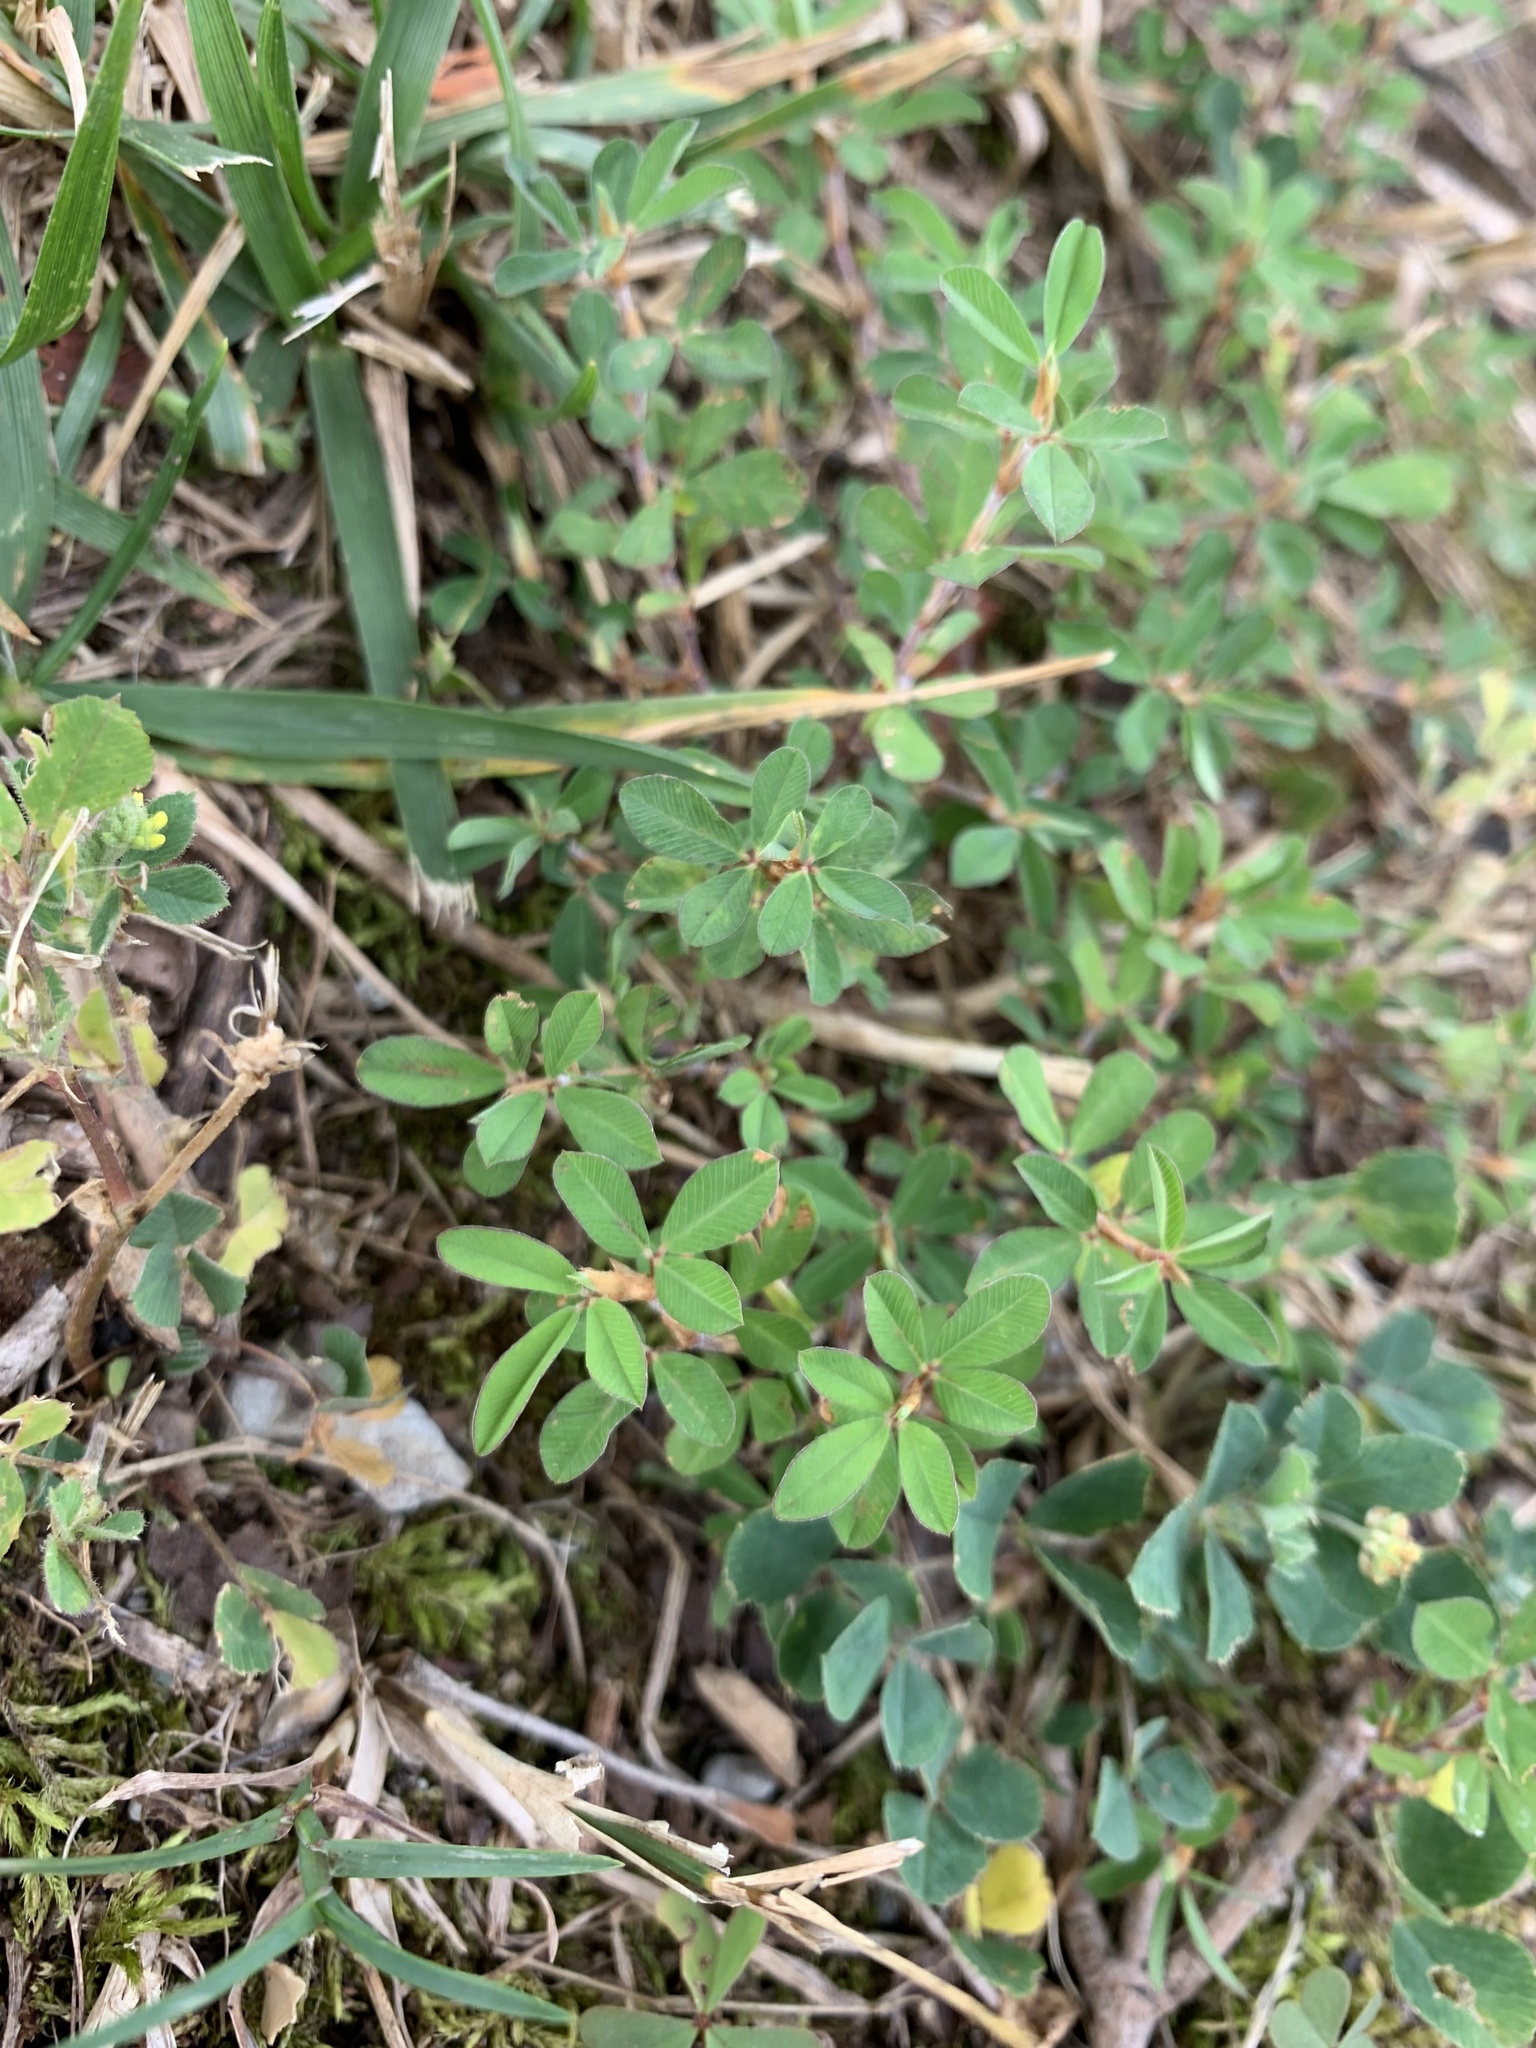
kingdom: Plantae
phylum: Tracheophyta
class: Magnoliopsida
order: Fabales
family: Fabaceae
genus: Kummerowia
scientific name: Kummerowia striata
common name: Japanese clover
